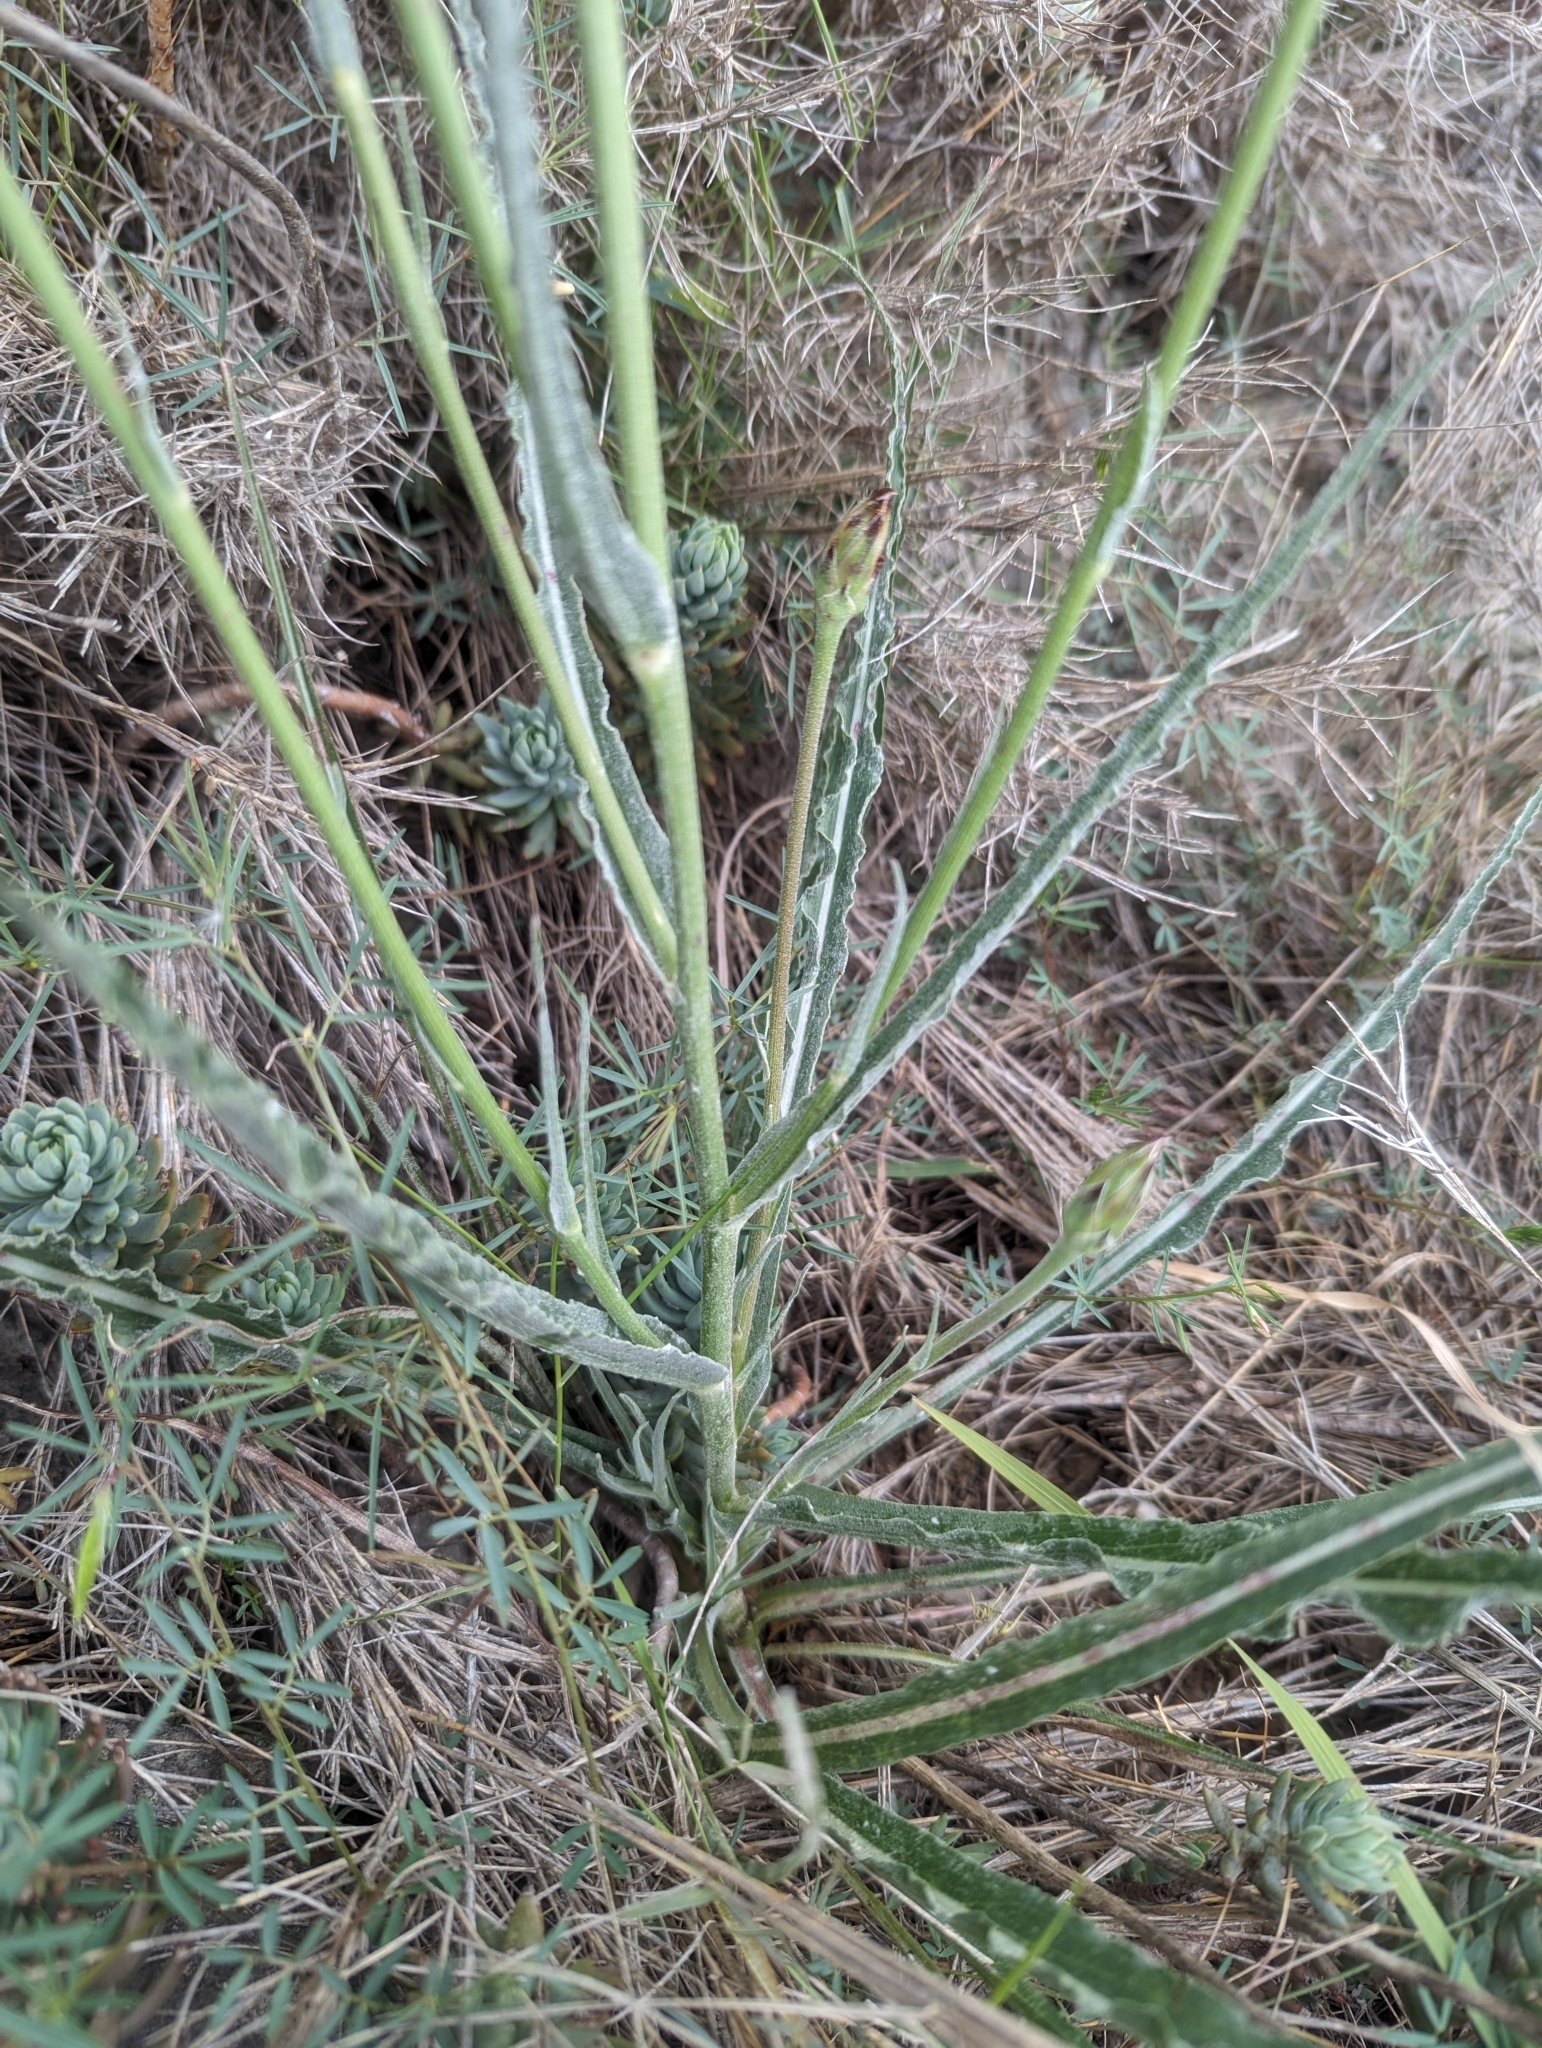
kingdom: Plantae
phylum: Tracheophyta
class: Magnoliopsida
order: Asterales
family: Asteraceae
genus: Pseudopodospermum
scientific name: Pseudopodospermum hispanicum
